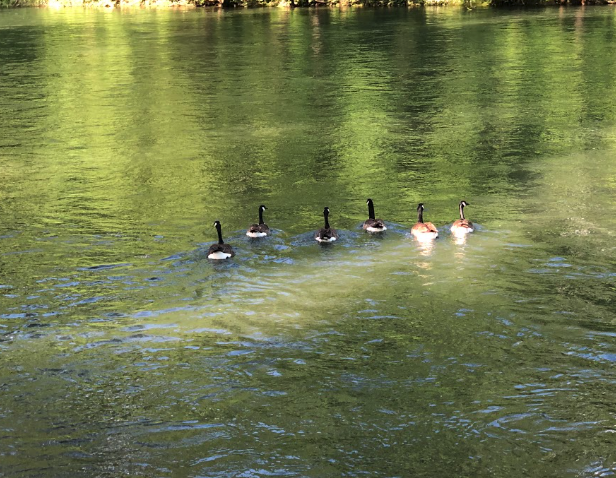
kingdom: Animalia
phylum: Chordata
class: Aves
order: Anseriformes
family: Anatidae
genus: Branta
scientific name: Branta canadensis
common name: Canada goose
